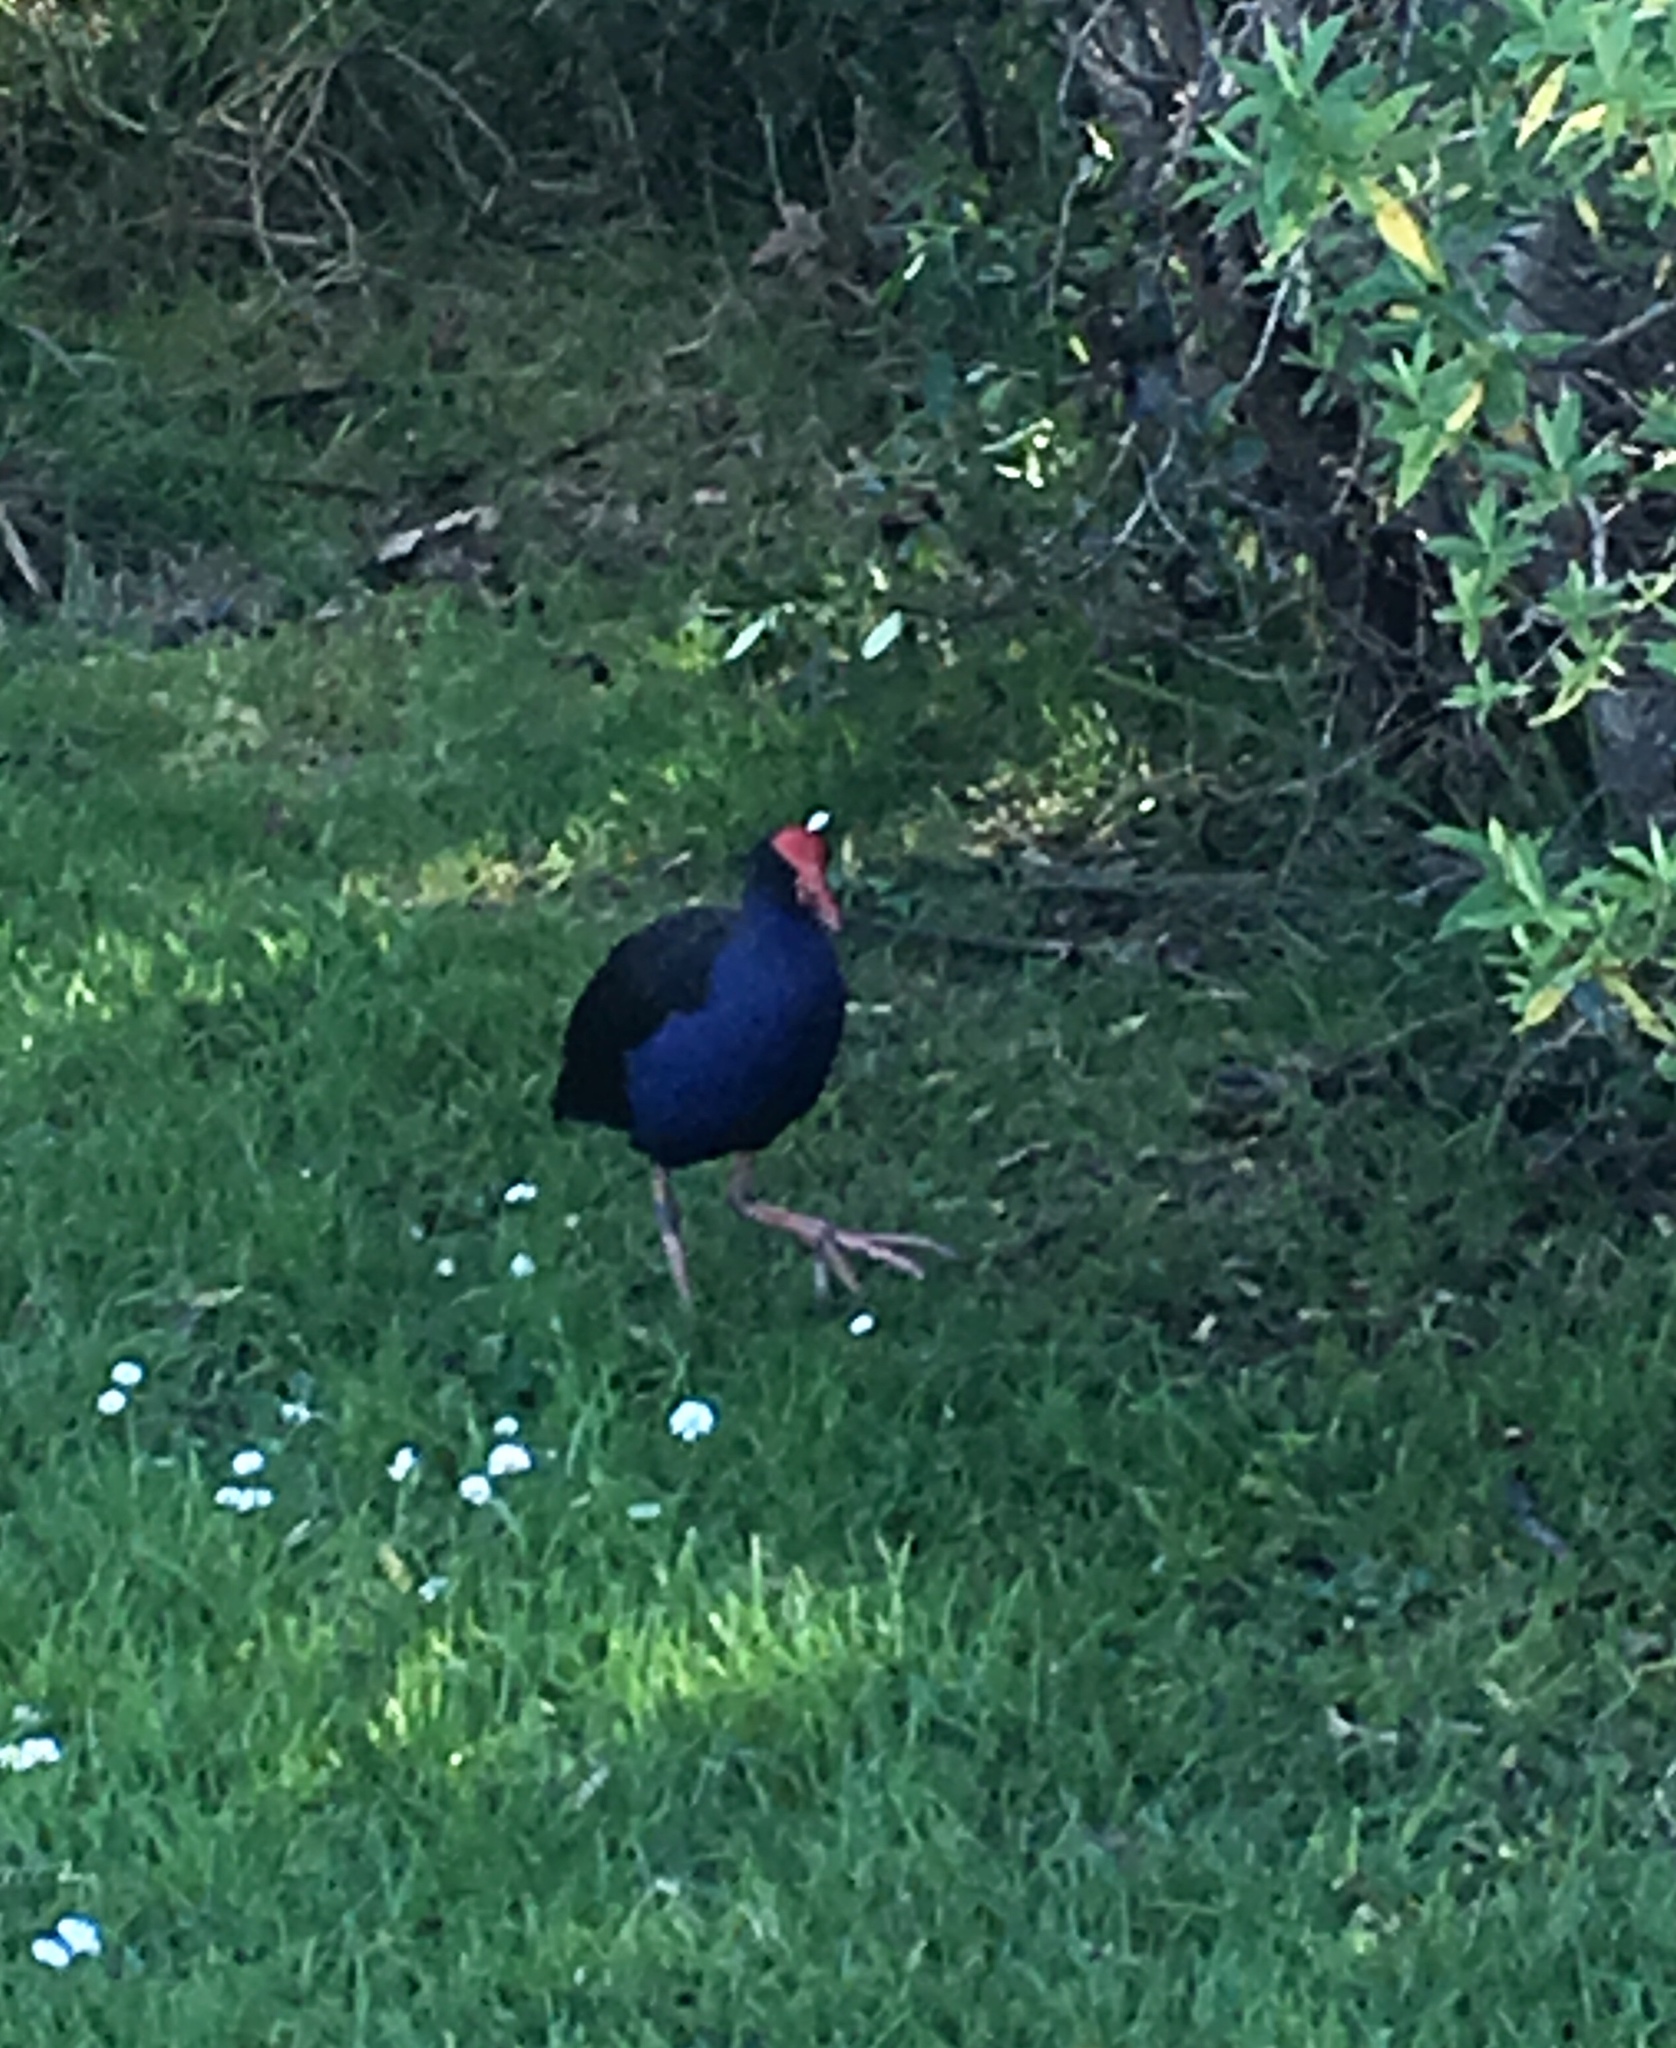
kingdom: Animalia
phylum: Chordata
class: Aves
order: Gruiformes
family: Rallidae
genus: Porphyrio
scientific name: Porphyrio melanotus
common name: Australasian swamphen
